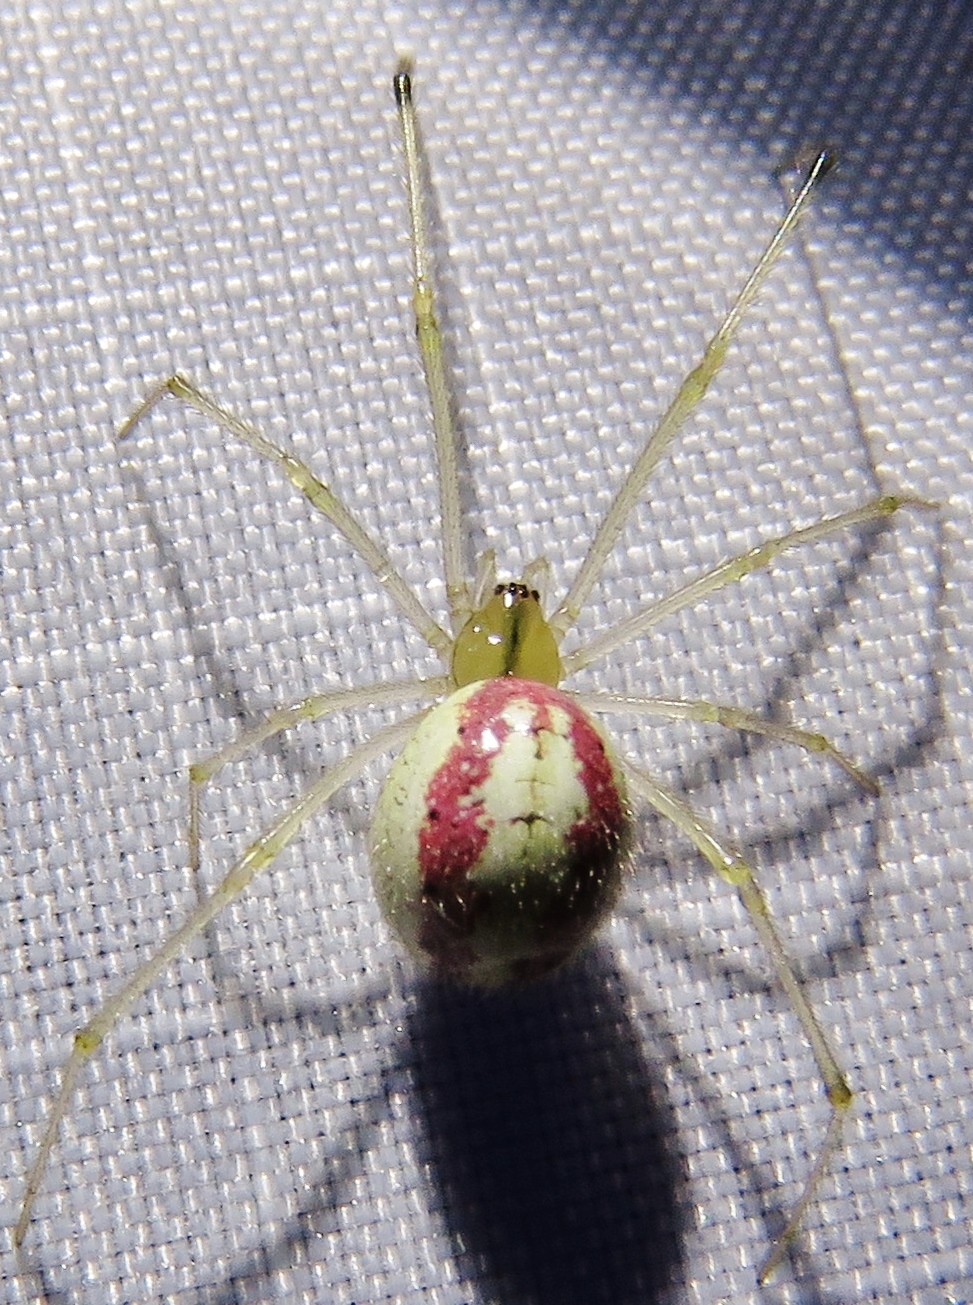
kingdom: Animalia
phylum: Arthropoda
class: Arachnida
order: Araneae
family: Theridiidae
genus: Enoplognatha
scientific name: Enoplognatha ovata
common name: Common candy-striped spider
